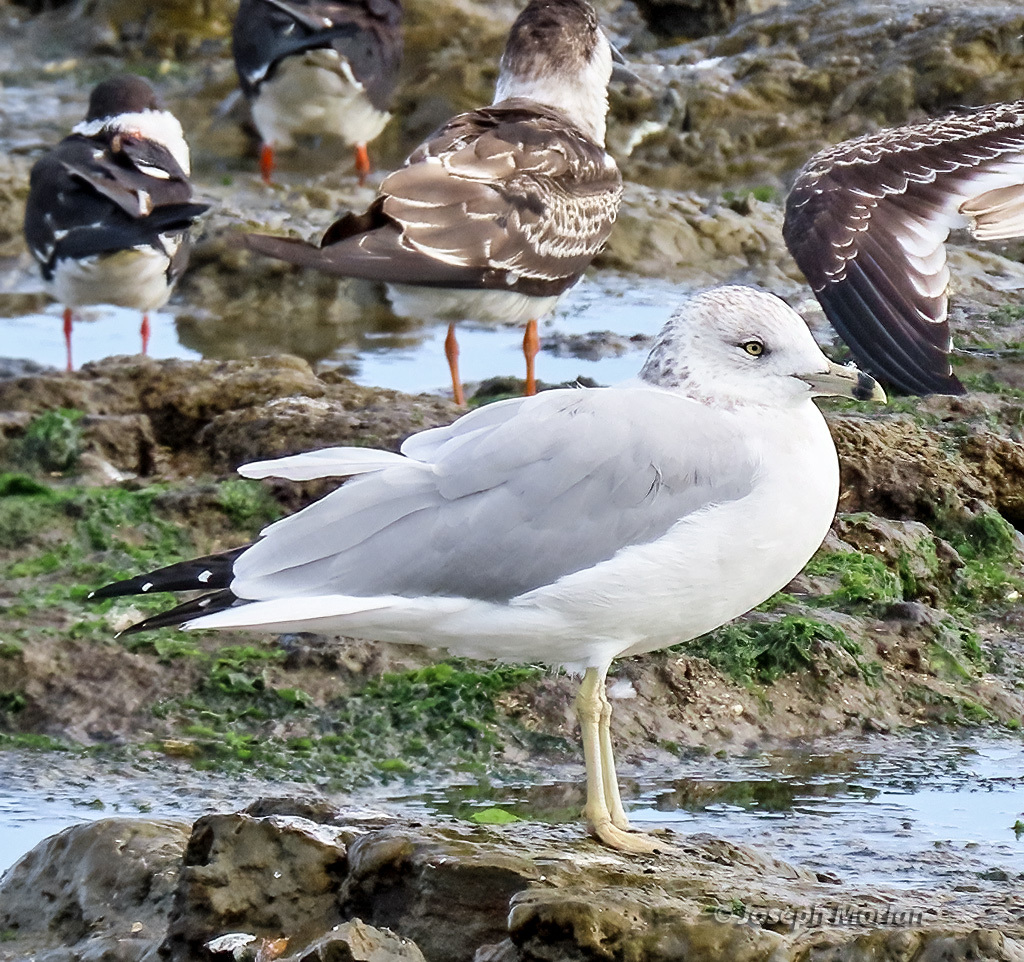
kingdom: Animalia
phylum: Chordata
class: Aves
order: Charadriiformes
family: Laridae
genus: Larus
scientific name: Larus delawarensis
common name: Ring-billed gull
